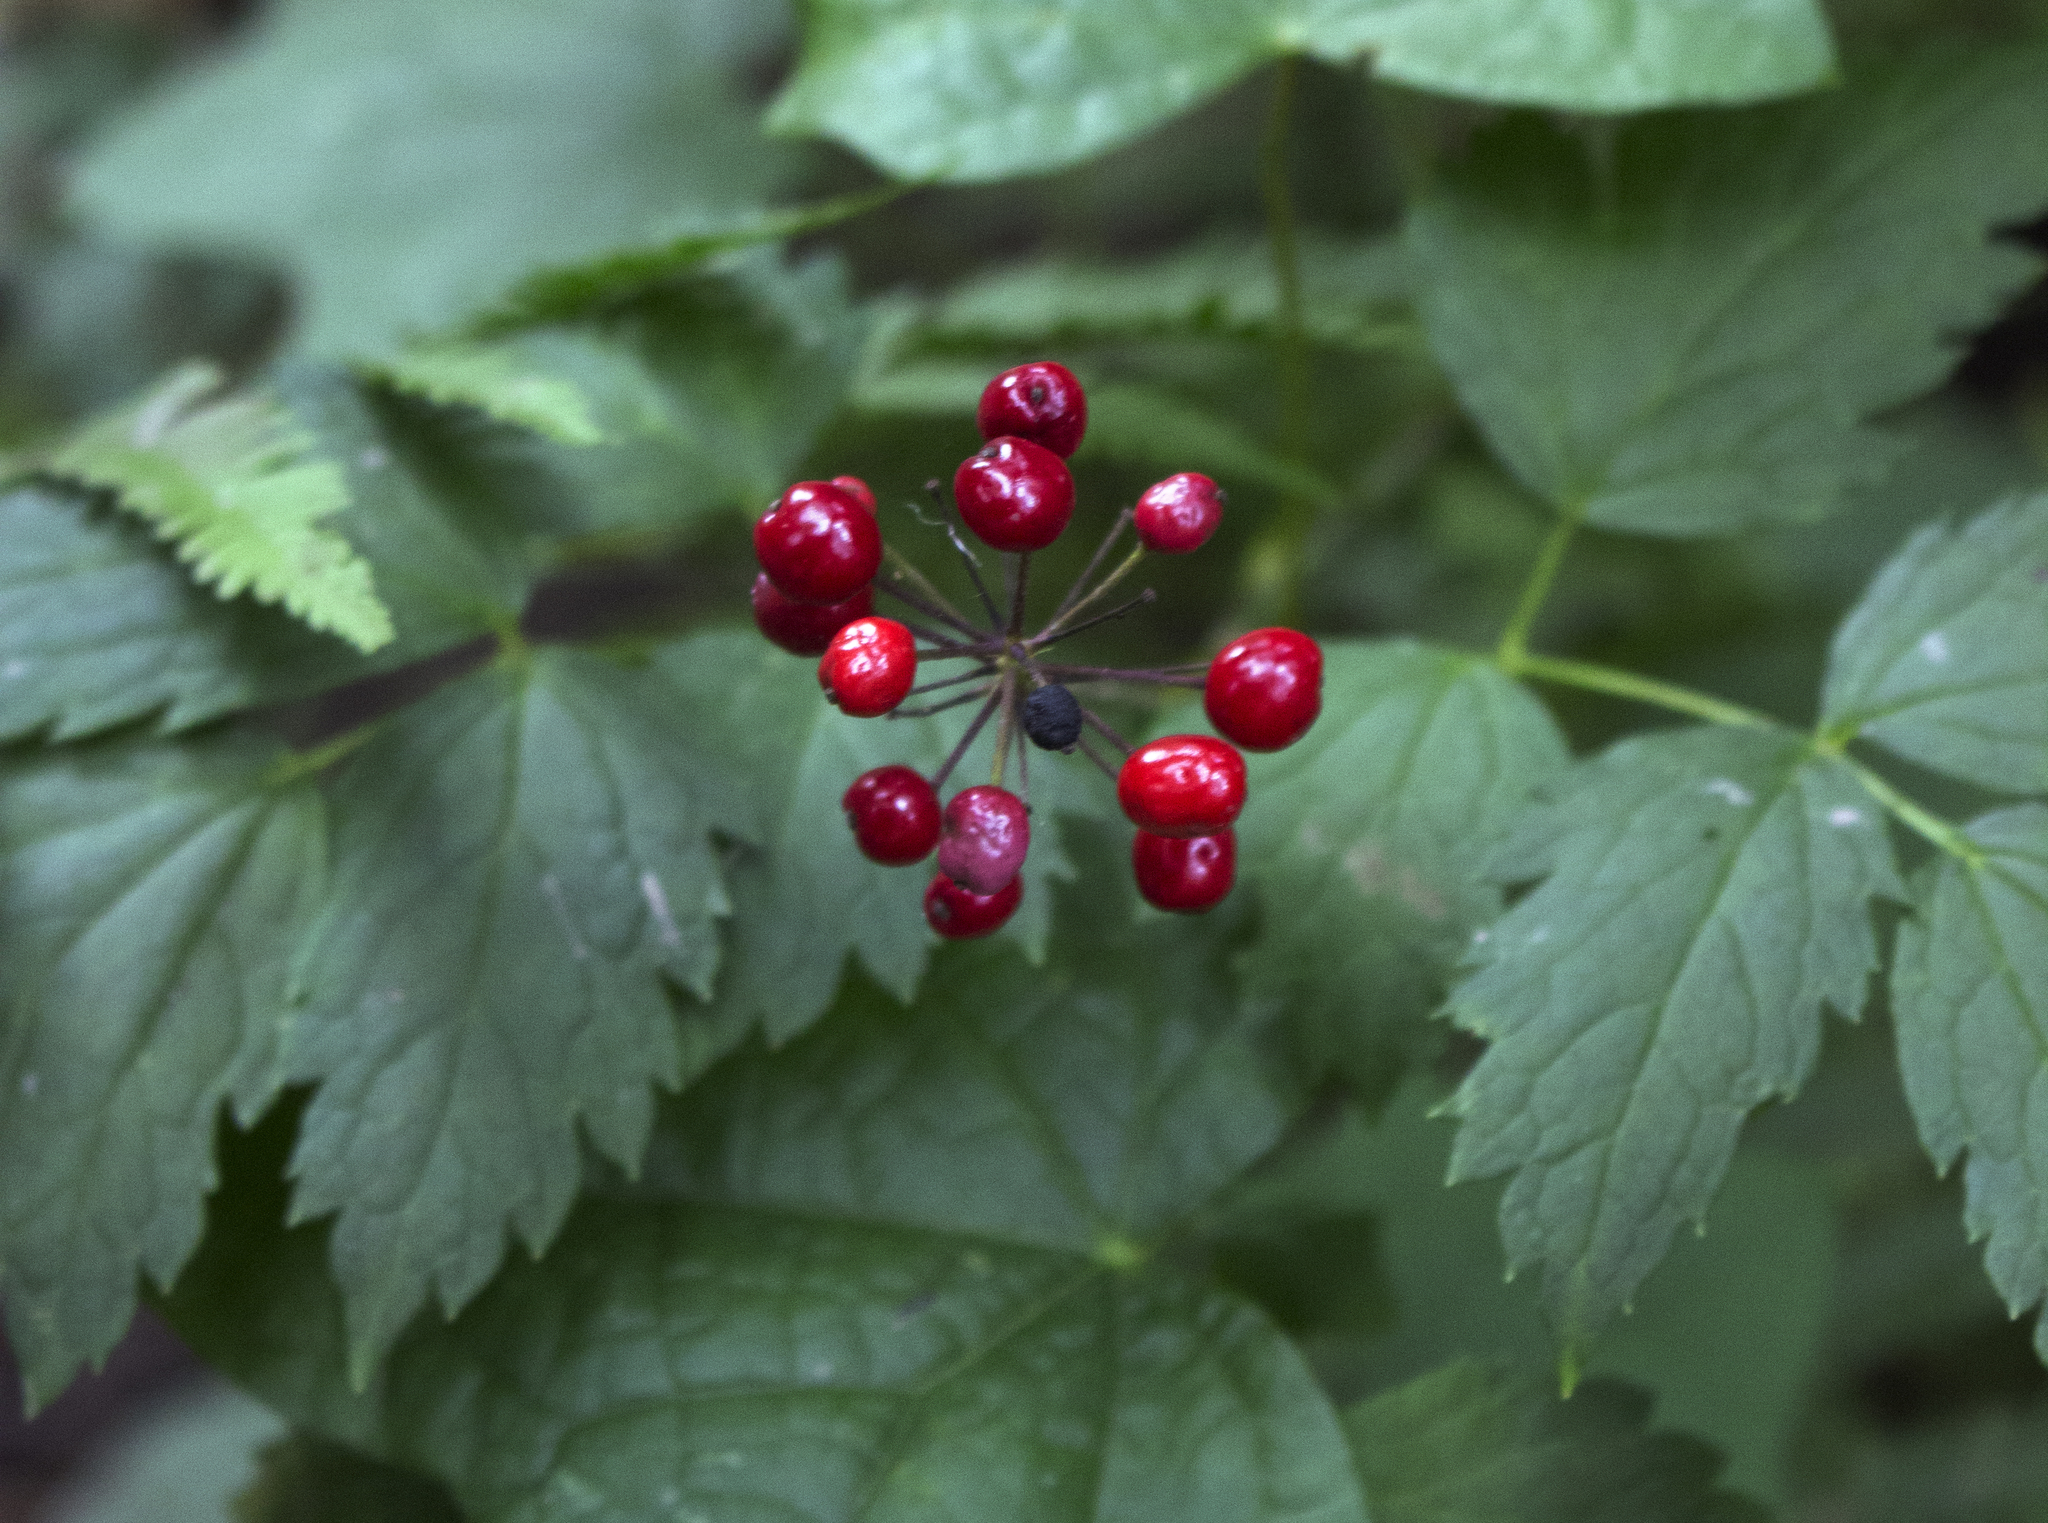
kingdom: Plantae
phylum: Tracheophyta
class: Magnoliopsida
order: Ranunculales
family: Ranunculaceae
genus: Actaea
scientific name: Actaea rubra
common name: Red baneberry
